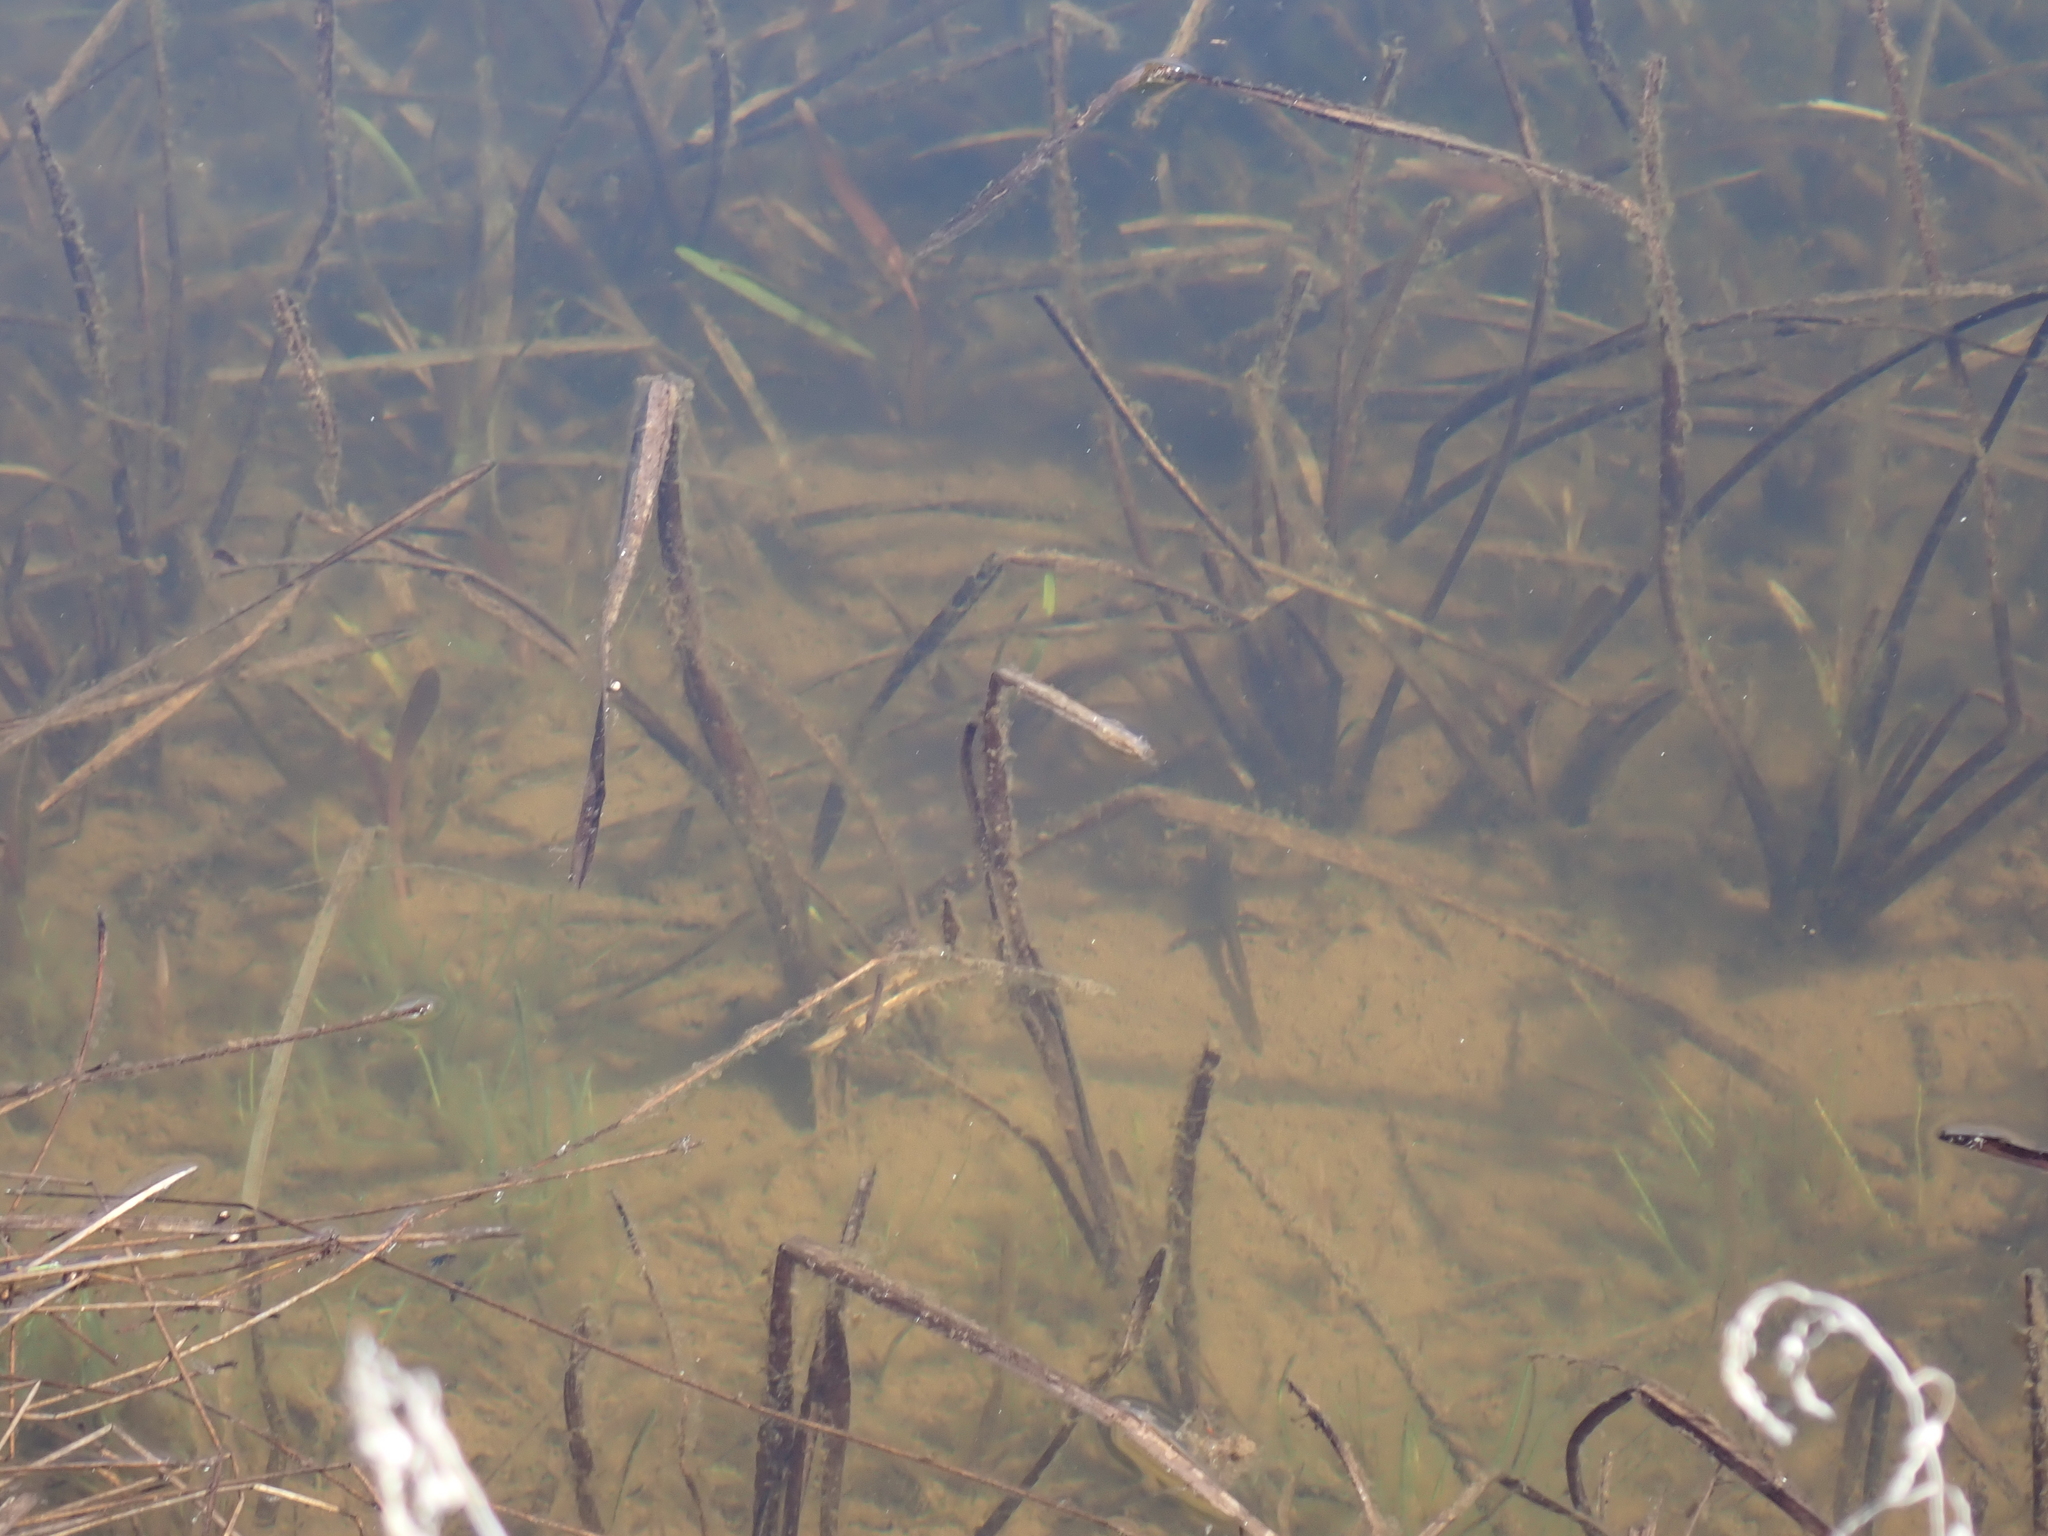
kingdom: Animalia
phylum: Chordata
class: Amphibia
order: Caudata
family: Salamandridae
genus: Notophthalmus
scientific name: Notophthalmus viridescens
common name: Eastern newt
